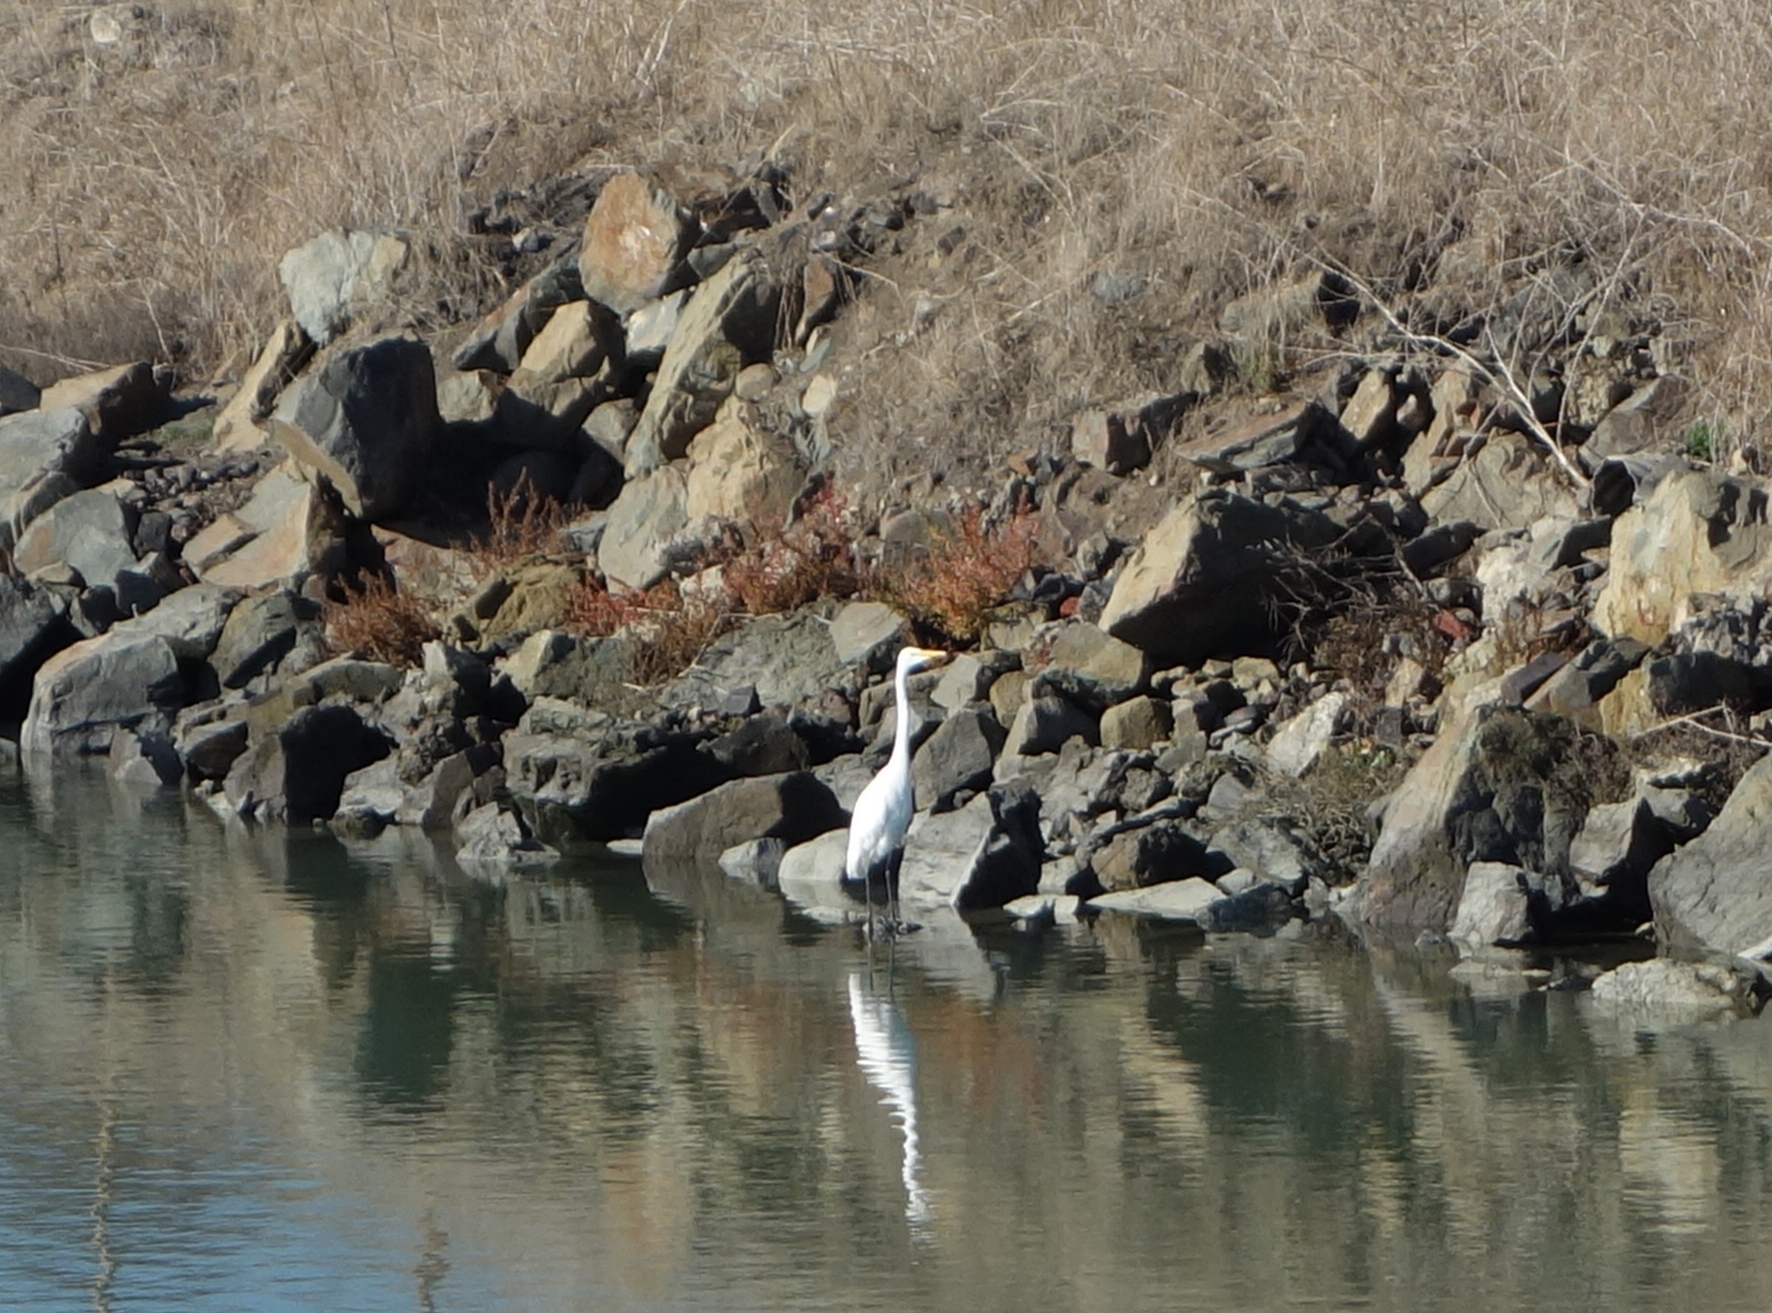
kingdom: Animalia
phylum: Chordata
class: Aves
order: Pelecaniformes
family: Ardeidae
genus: Ardea
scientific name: Ardea alba
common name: Great egret
